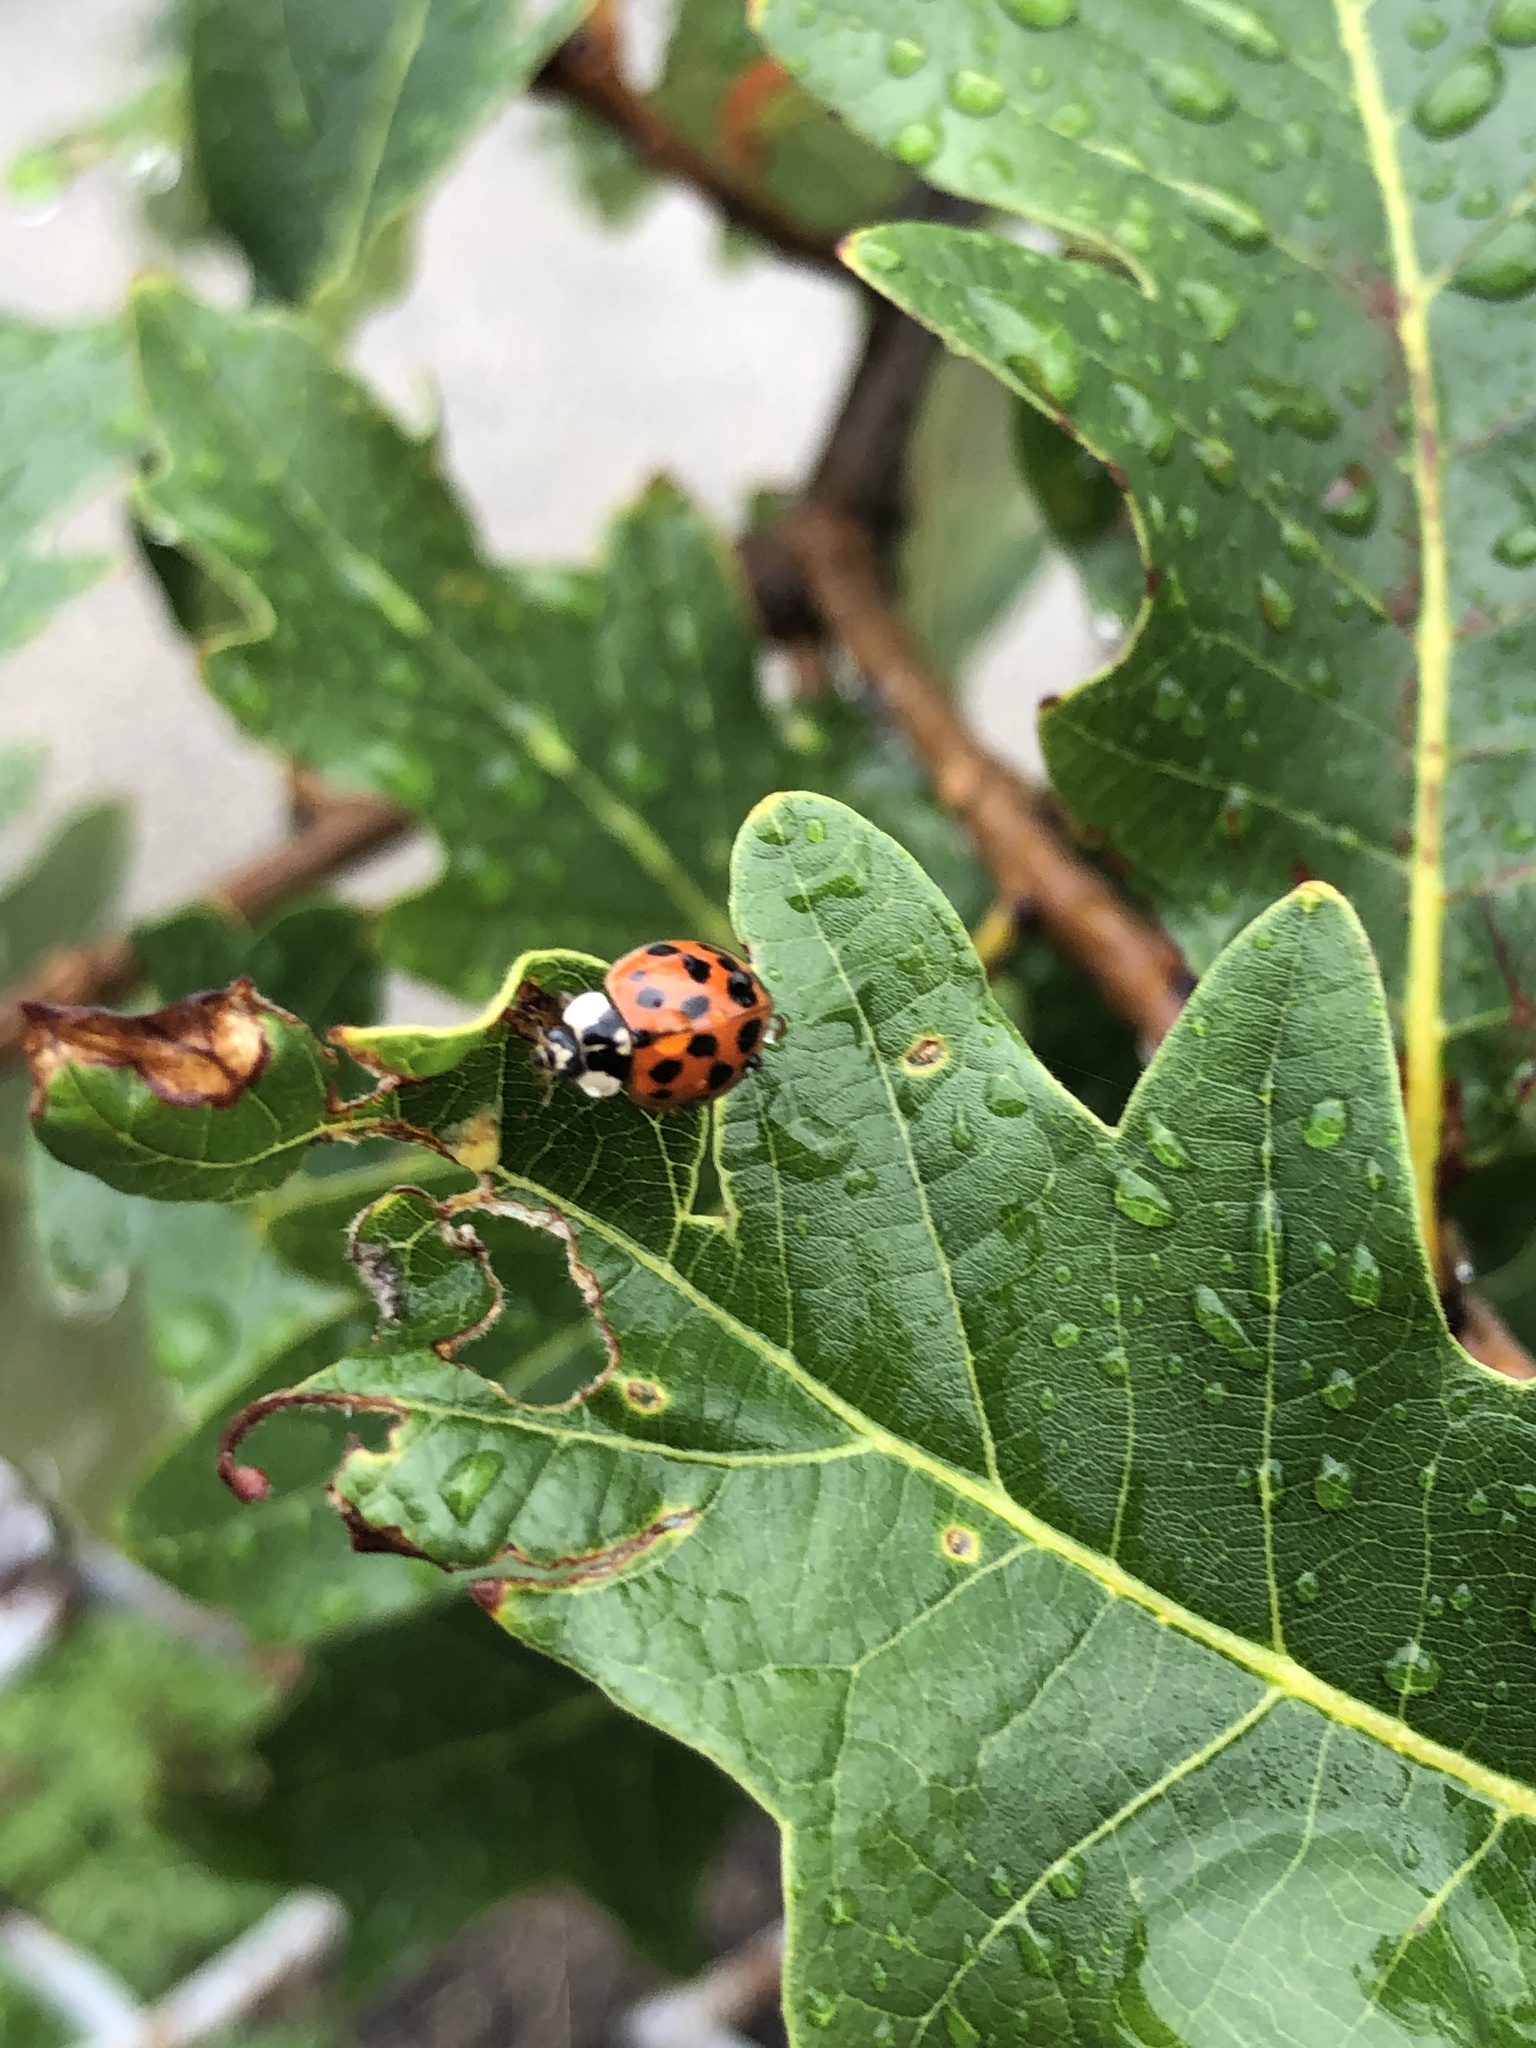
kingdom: Animalia
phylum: Arthropoda
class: Insecta
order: Coleoptera
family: Coccinellidae
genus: Harmonia
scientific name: Harmonia axyridis
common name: Harlequin ladybird
